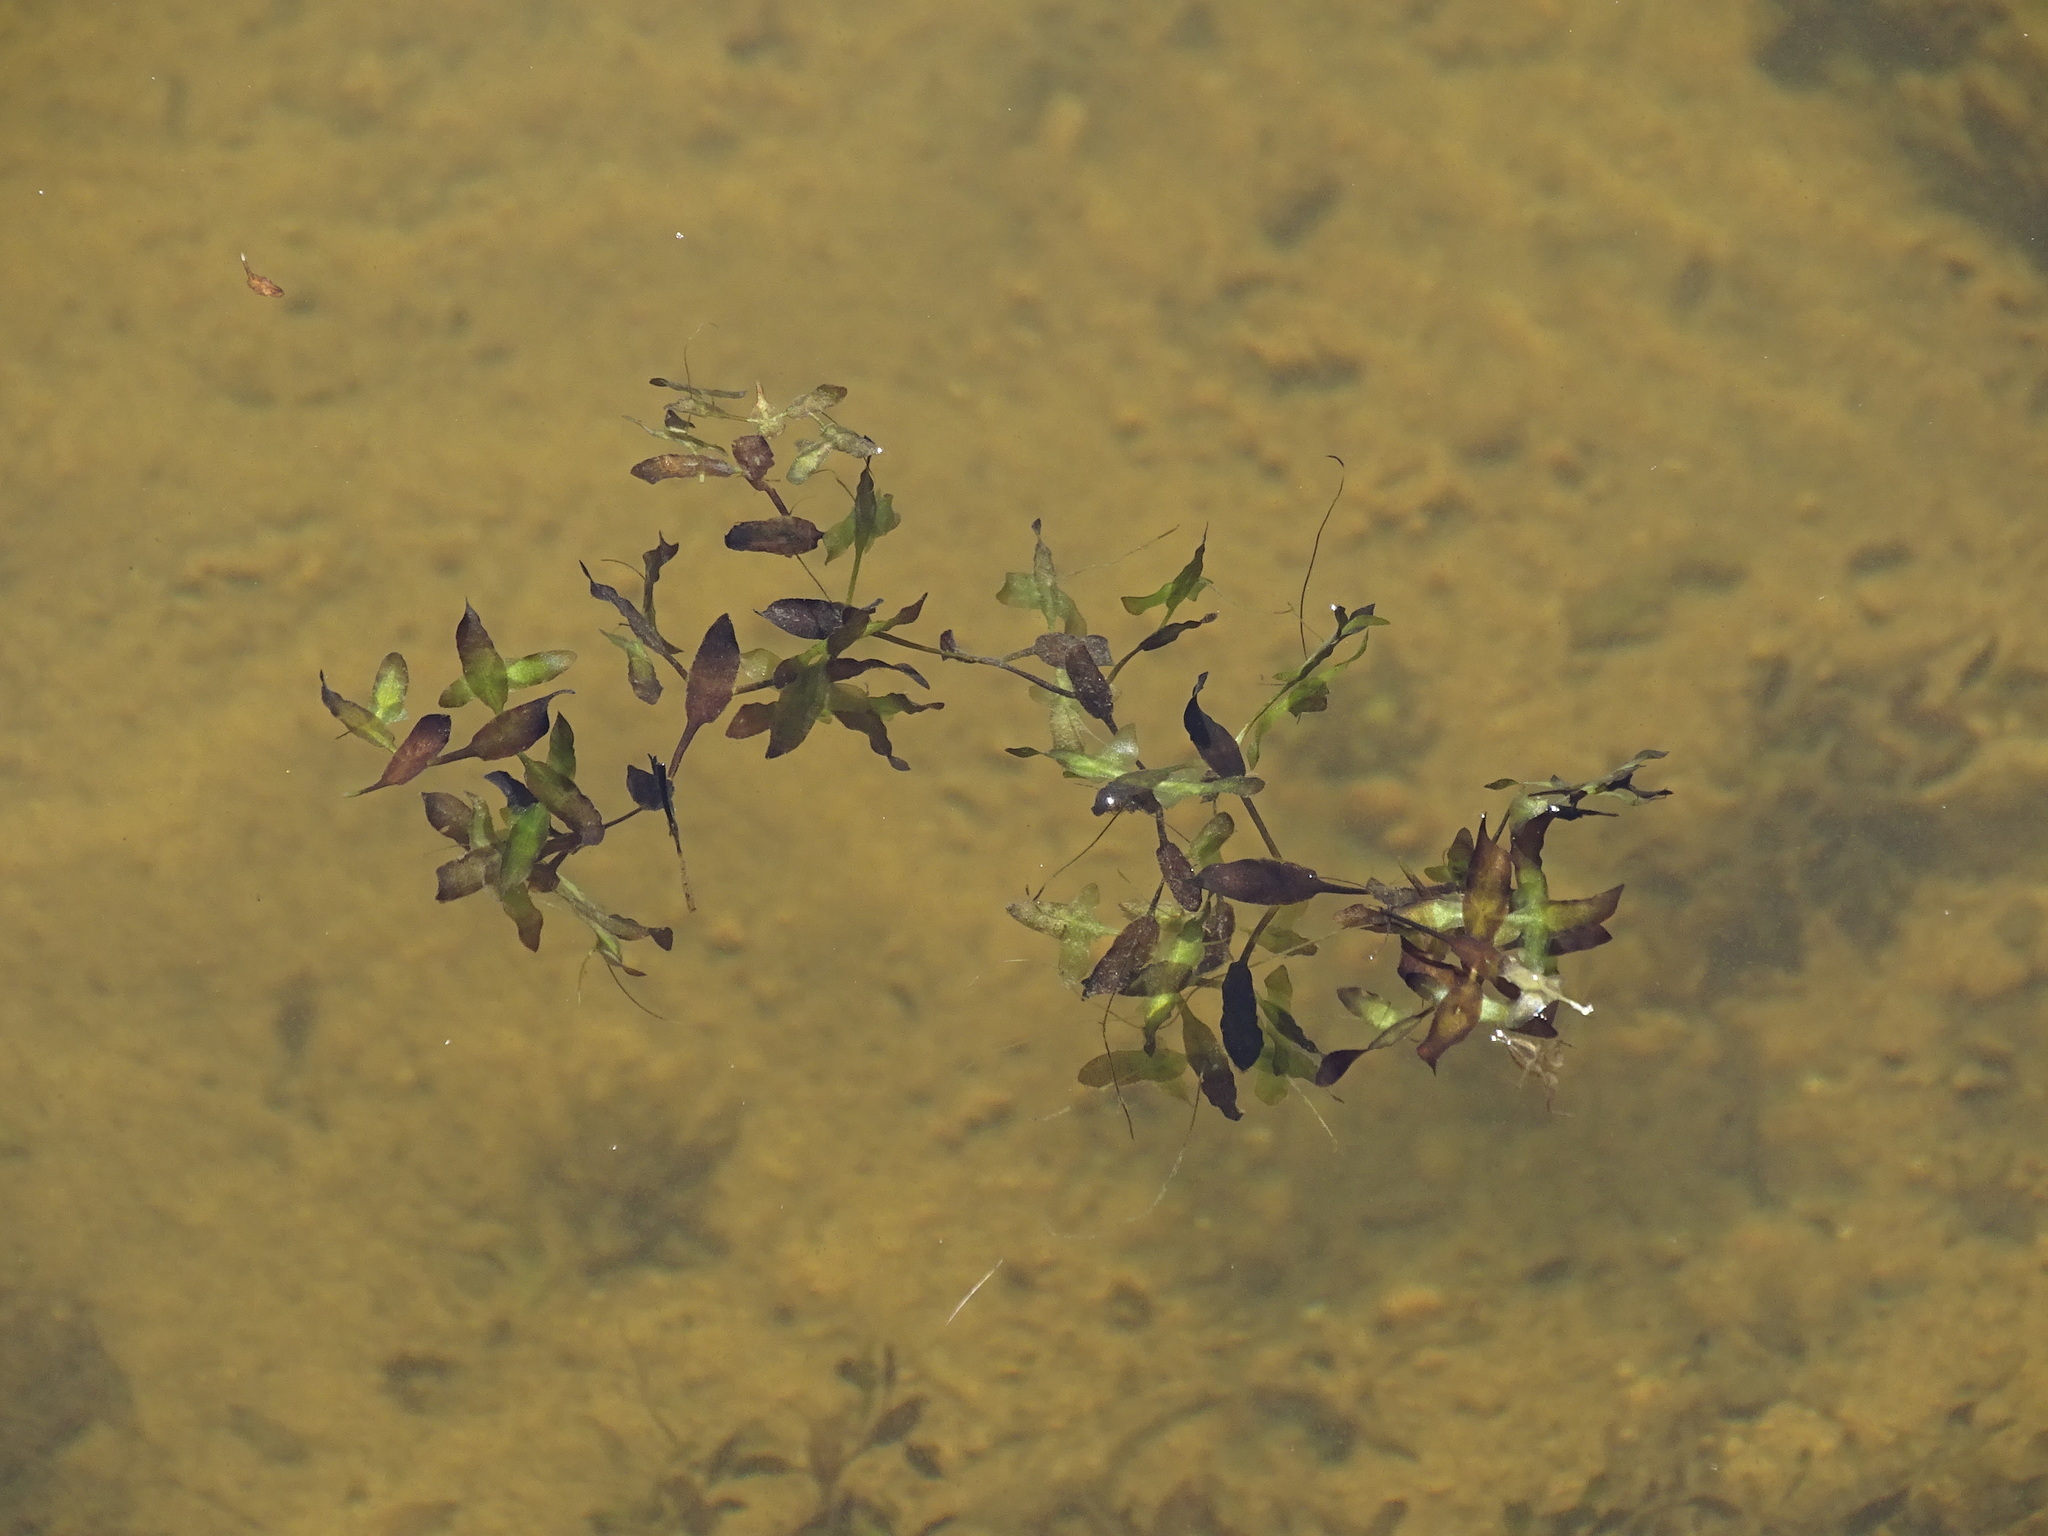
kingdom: Plantae
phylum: Tracheophyta
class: Liliopsida
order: Alismatales
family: Araceae
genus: Lemna
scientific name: Lemna trisulca
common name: Ivy-leaved duckweed
